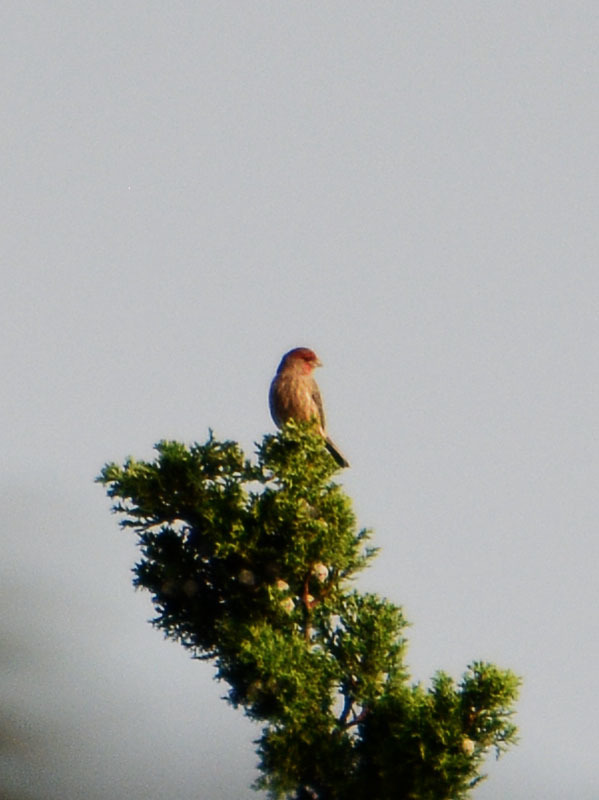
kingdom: Animalia
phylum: Chordata
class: Aves
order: Passeriformes
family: Fringillidae
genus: Haemorhous
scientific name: Haemorhous mexicanus
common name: House finch
